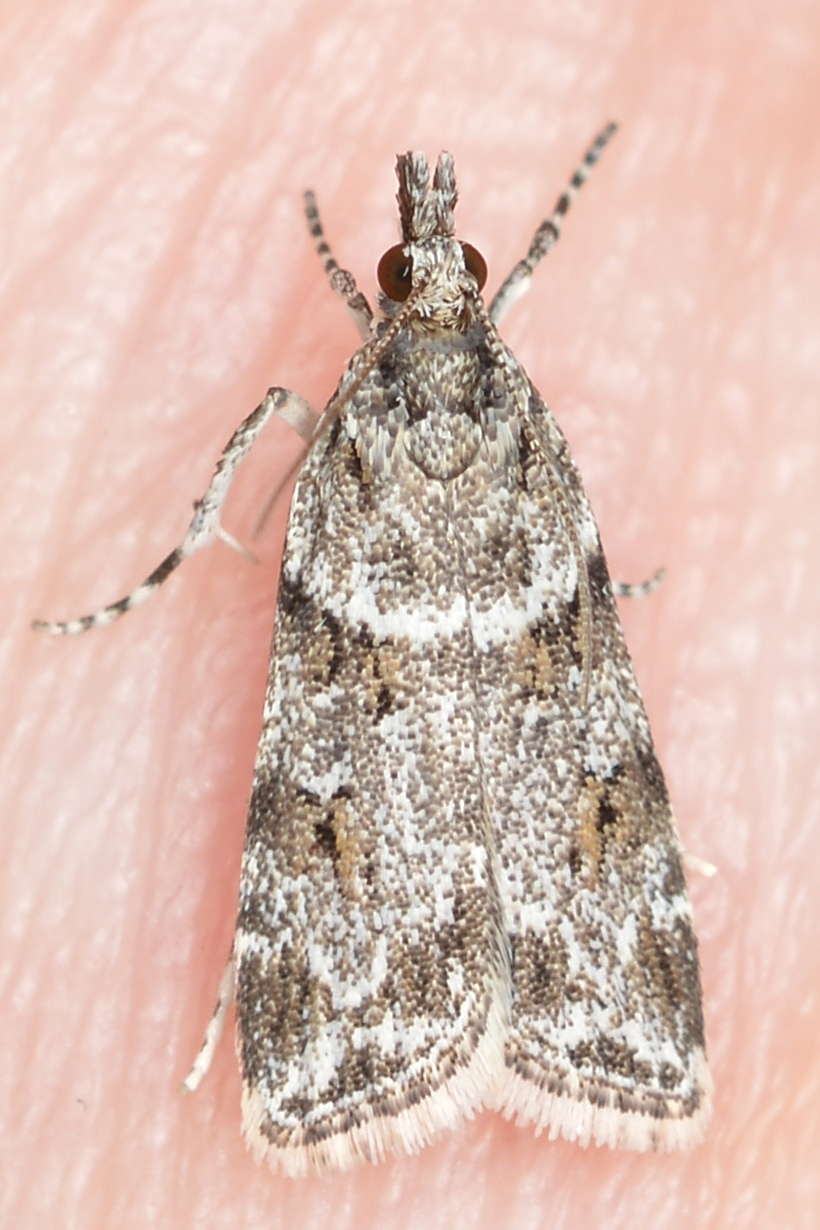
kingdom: Animalia
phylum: Arthropoda
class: Insecta
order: Lepidoptera
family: Crambidae
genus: Scoparia
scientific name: Scoparia biplagialis
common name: Double-striped scoparia moth
